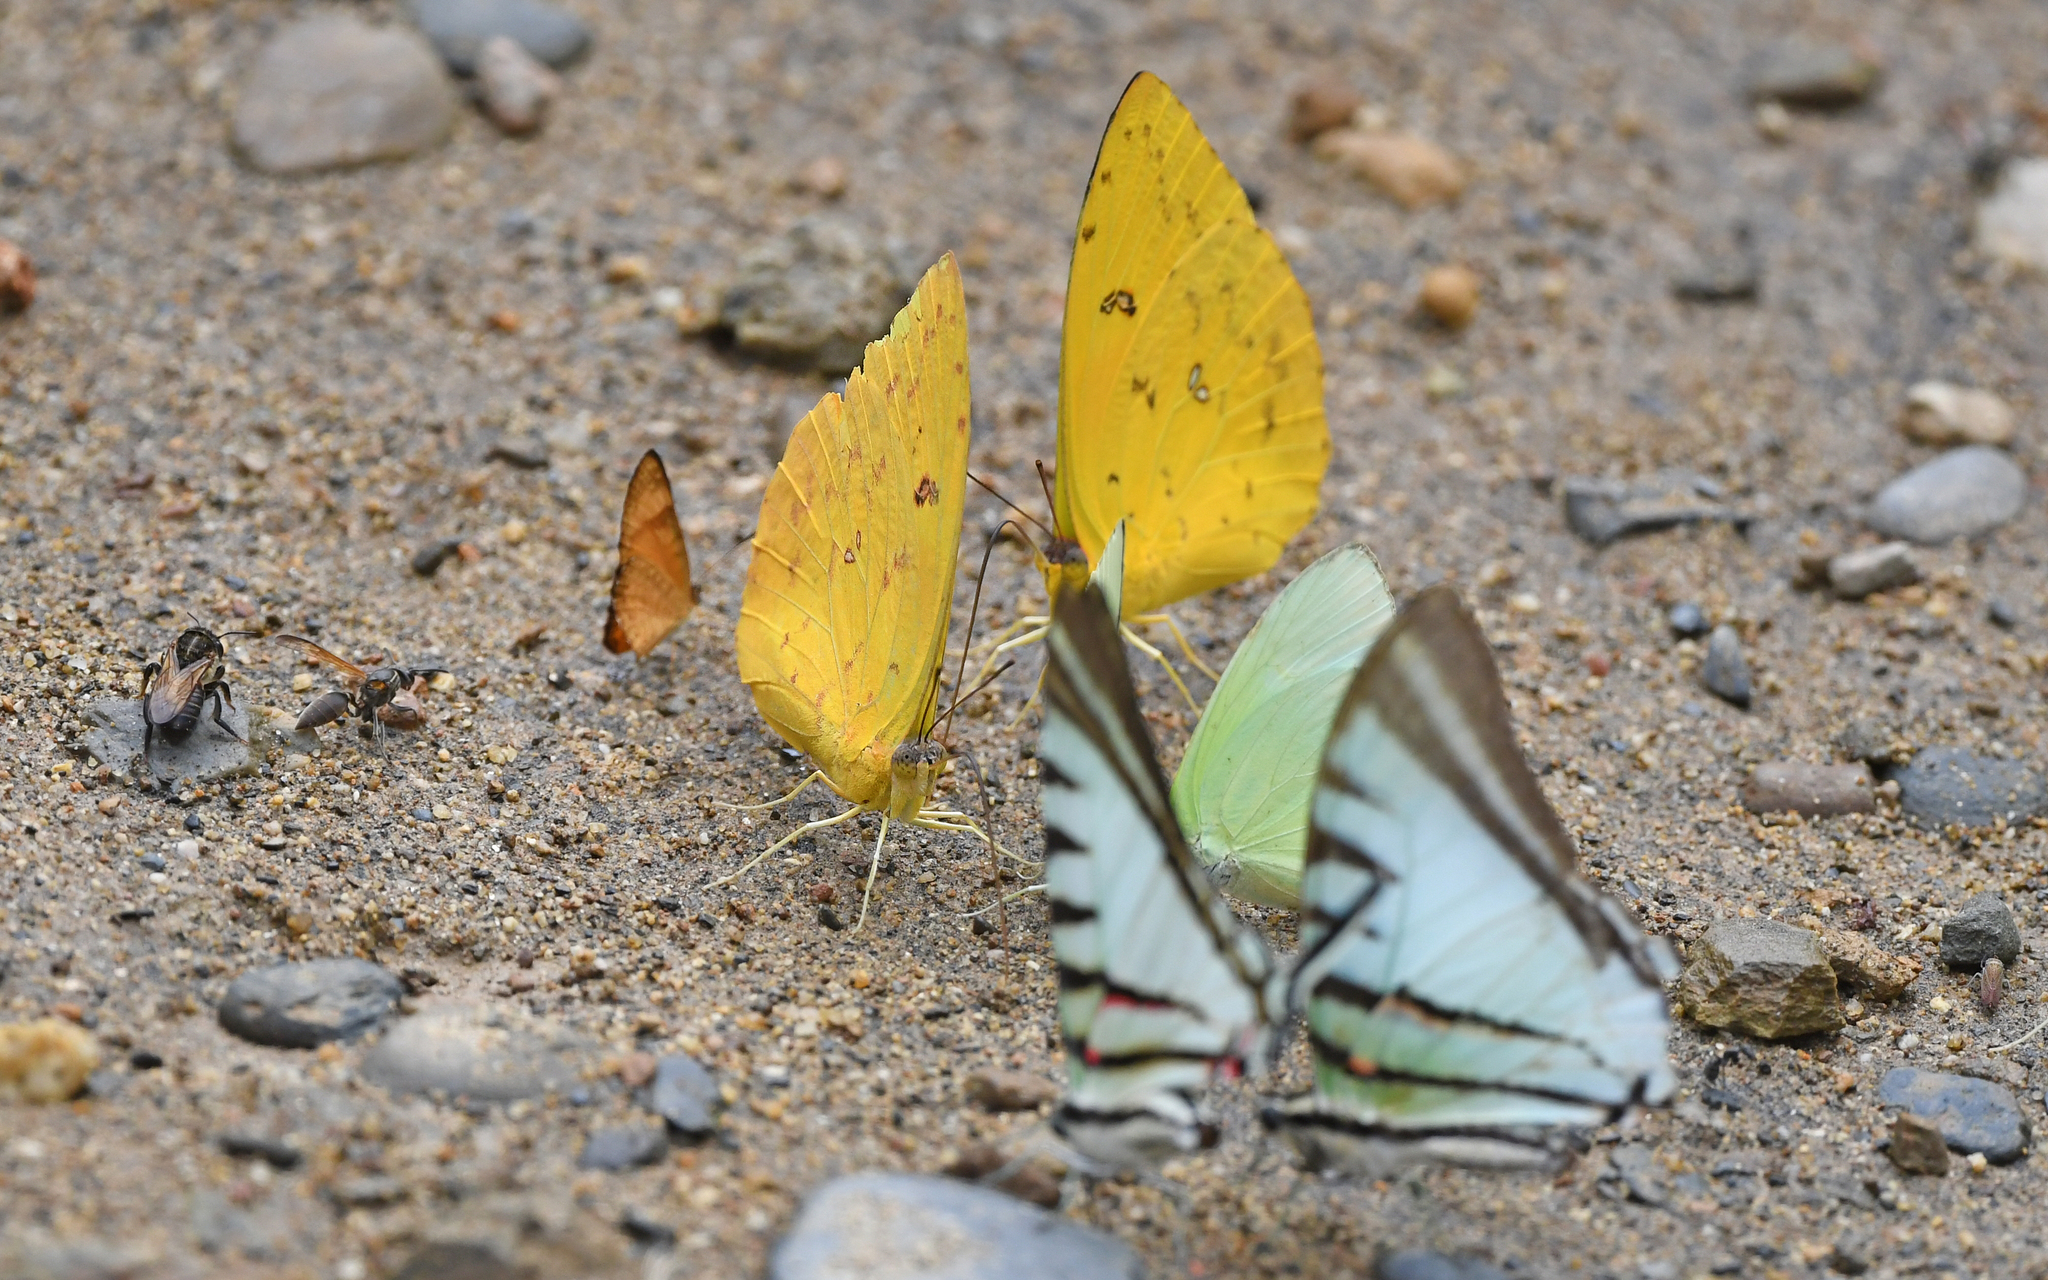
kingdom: Animalia
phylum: Arthropoda
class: Insecta
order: Lepidoptera
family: Pieridae
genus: Phoebis
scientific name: Phoebis argante
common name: Apricot sulphur
